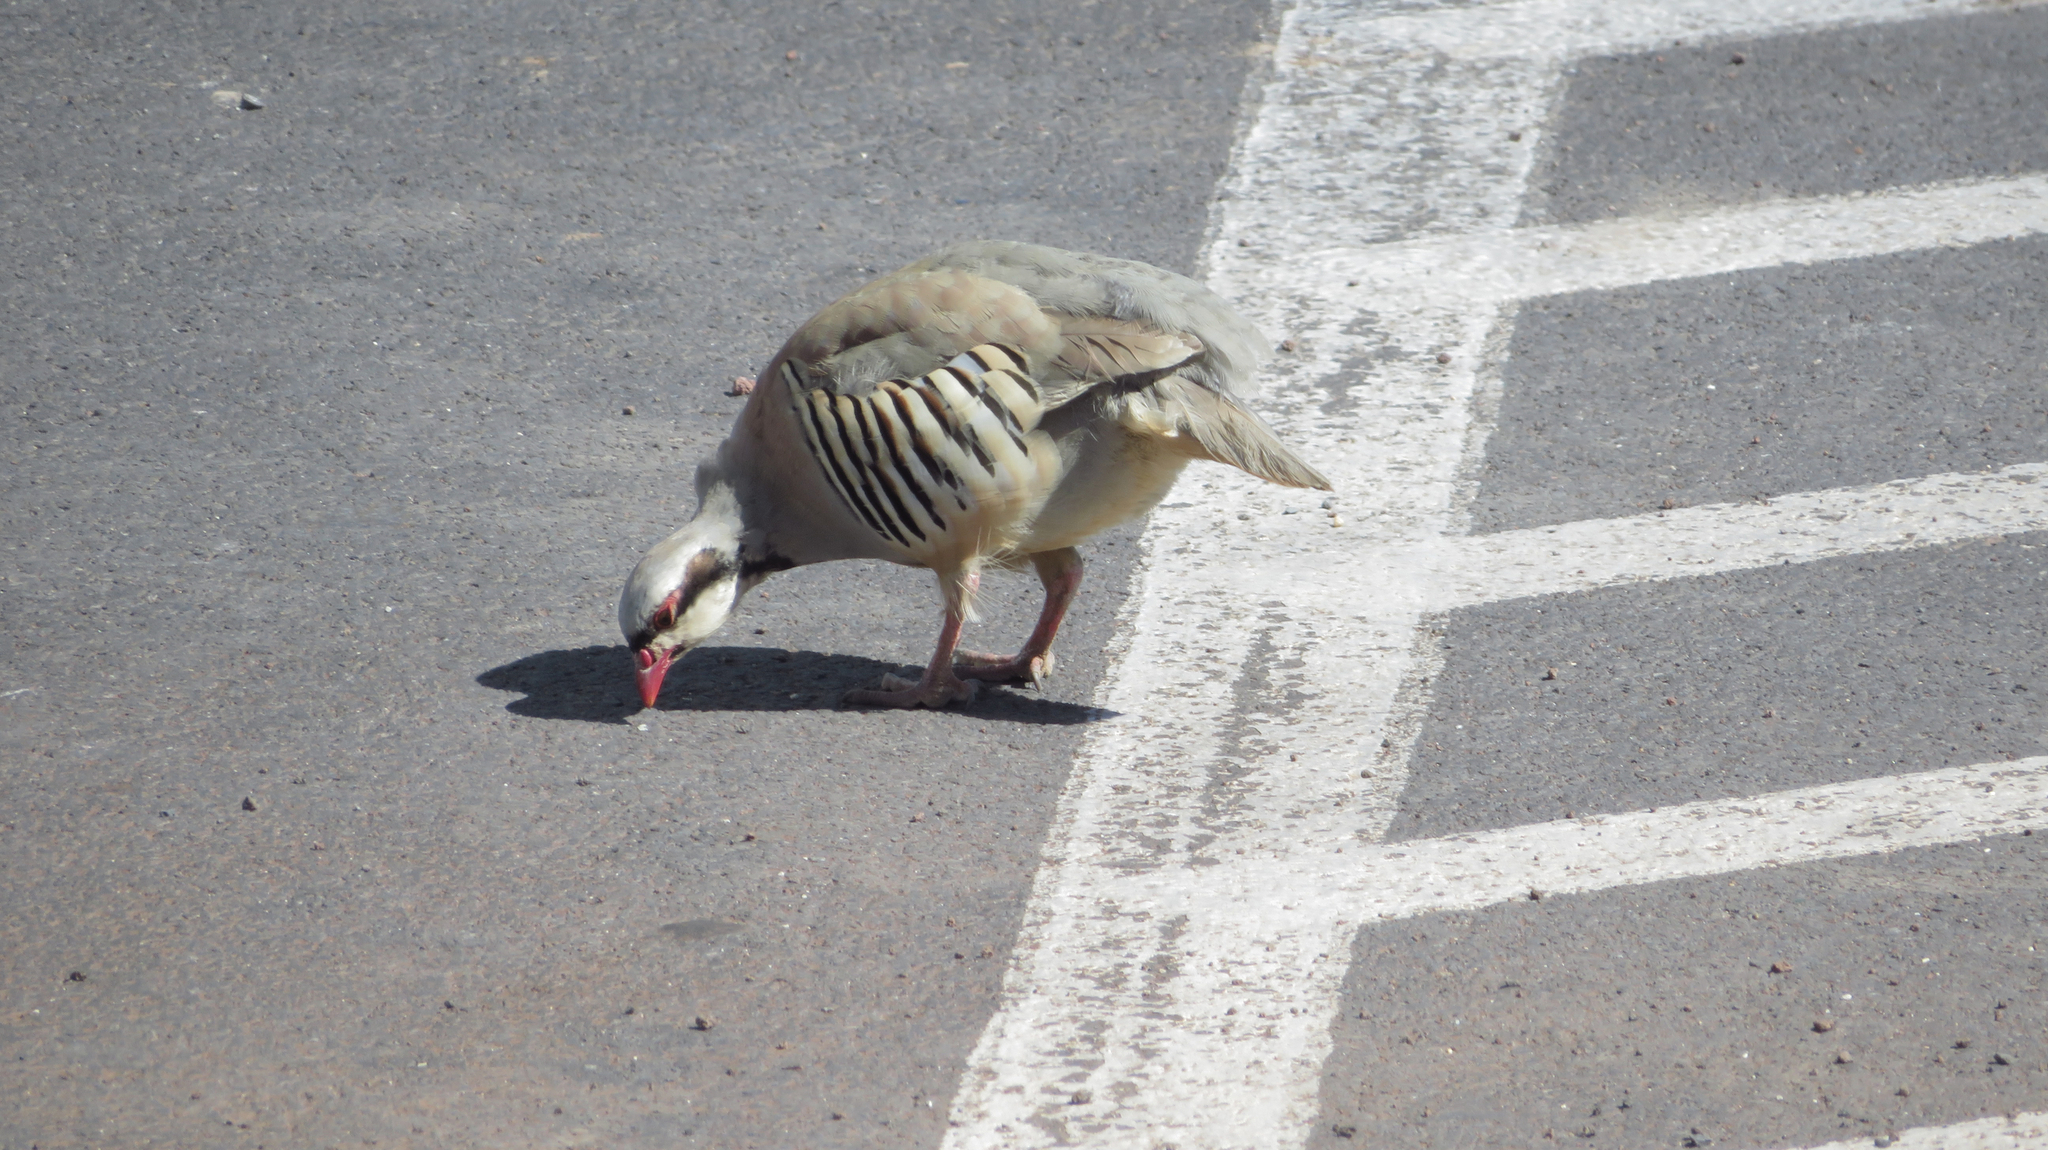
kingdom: Animalia
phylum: Chordata
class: Aves
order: Galliformes
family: Phasianidae
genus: Alectoris
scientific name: Alectoris chukar
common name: Chukar
